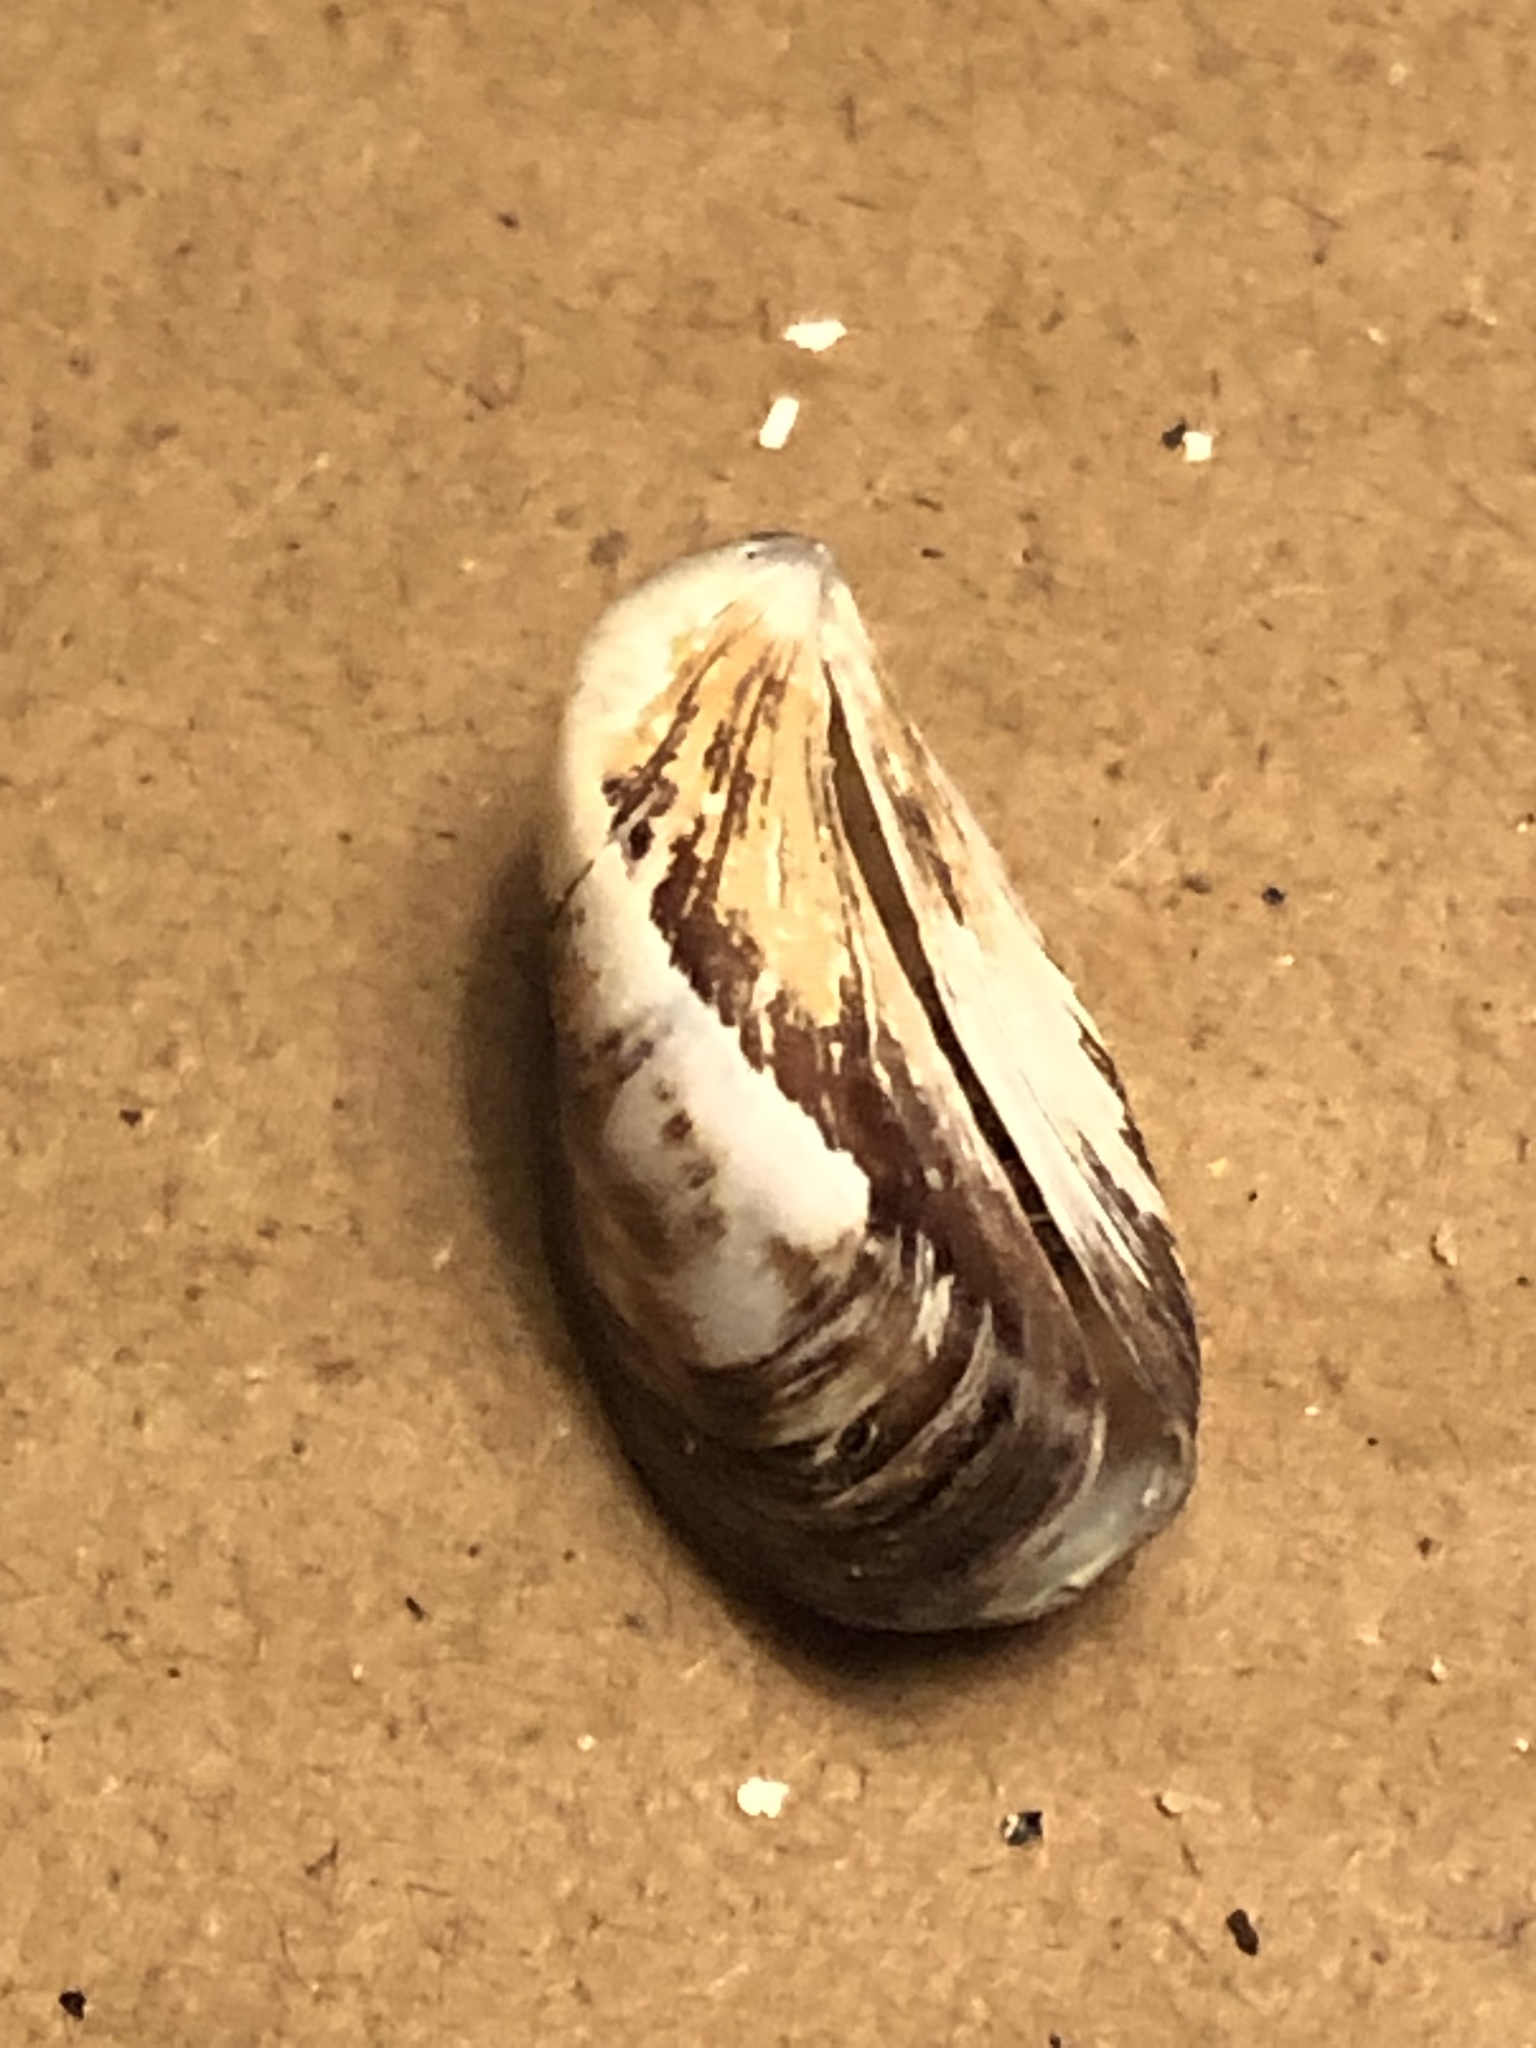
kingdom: Animalia
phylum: Mollusca
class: Bivalvia
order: Myida
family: Dreissenidae
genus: Dreissena
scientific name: Dreissena polymorpha
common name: Zebra mussel
